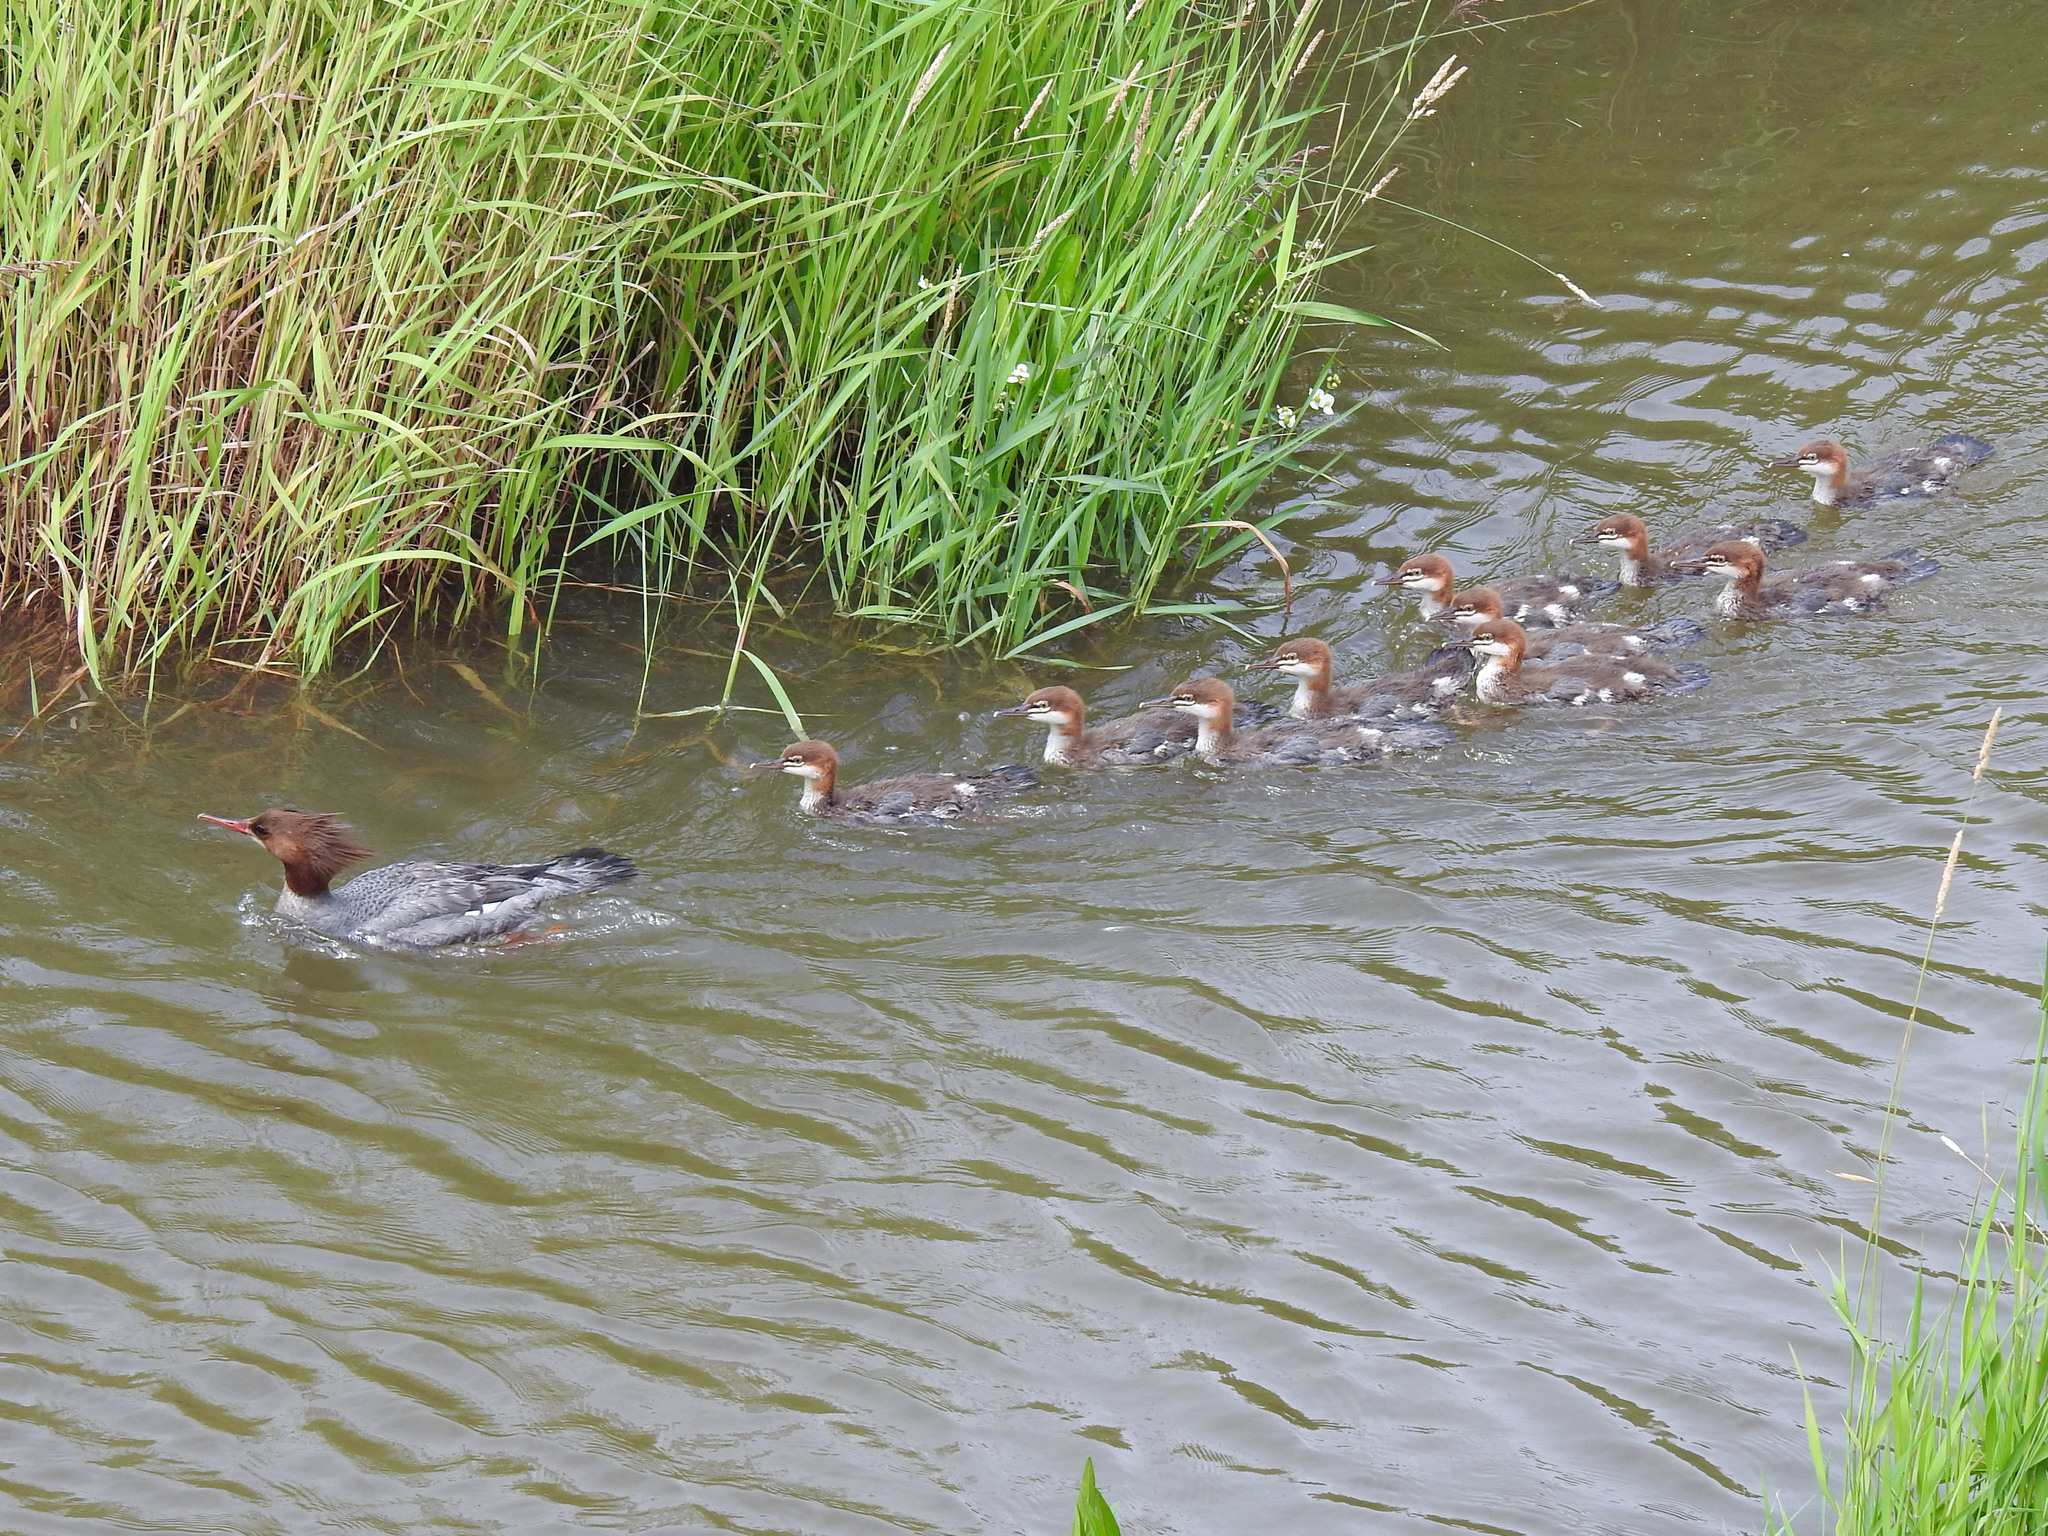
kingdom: Animalia
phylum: Chordata
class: Aves
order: Anseriformes
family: Anatidae
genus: Mergus
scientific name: Mergus merganser
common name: Common merganser
